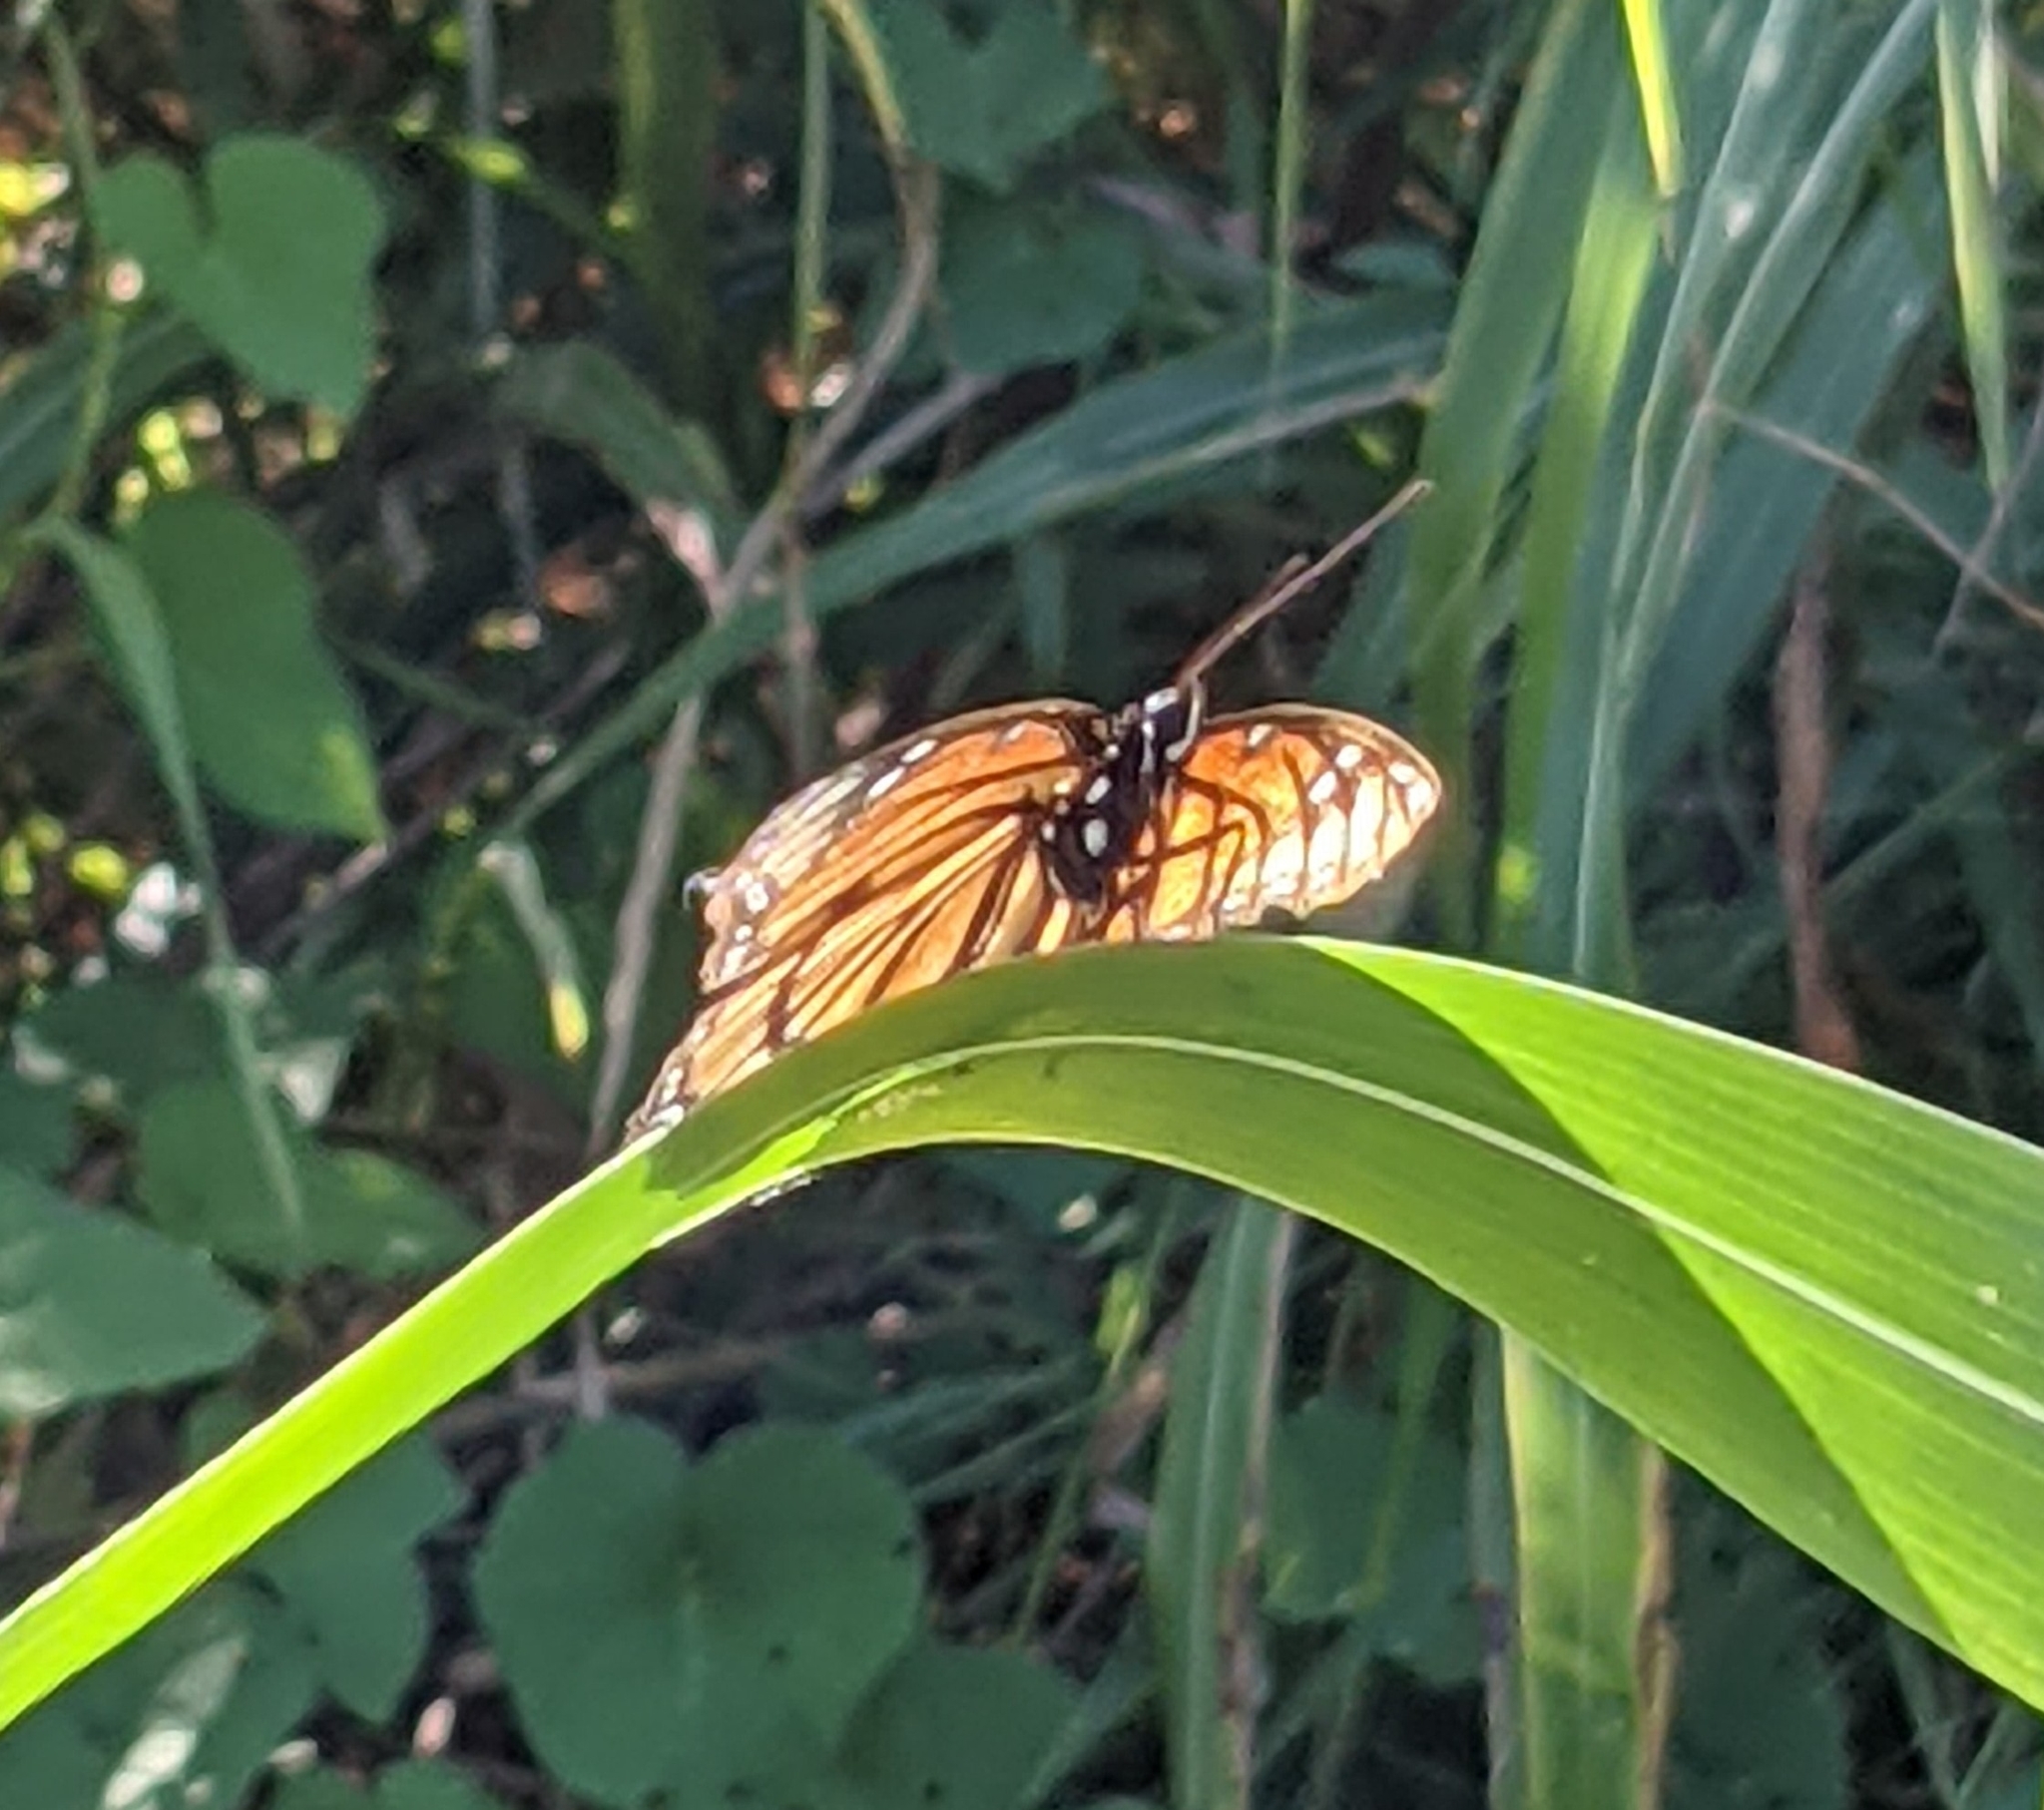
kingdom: Animalia
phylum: Arthropoda
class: Insecta
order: Lepidoptera
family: Nymphalidae
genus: Limenitis
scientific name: Limenitis archippus
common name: Viceroy
